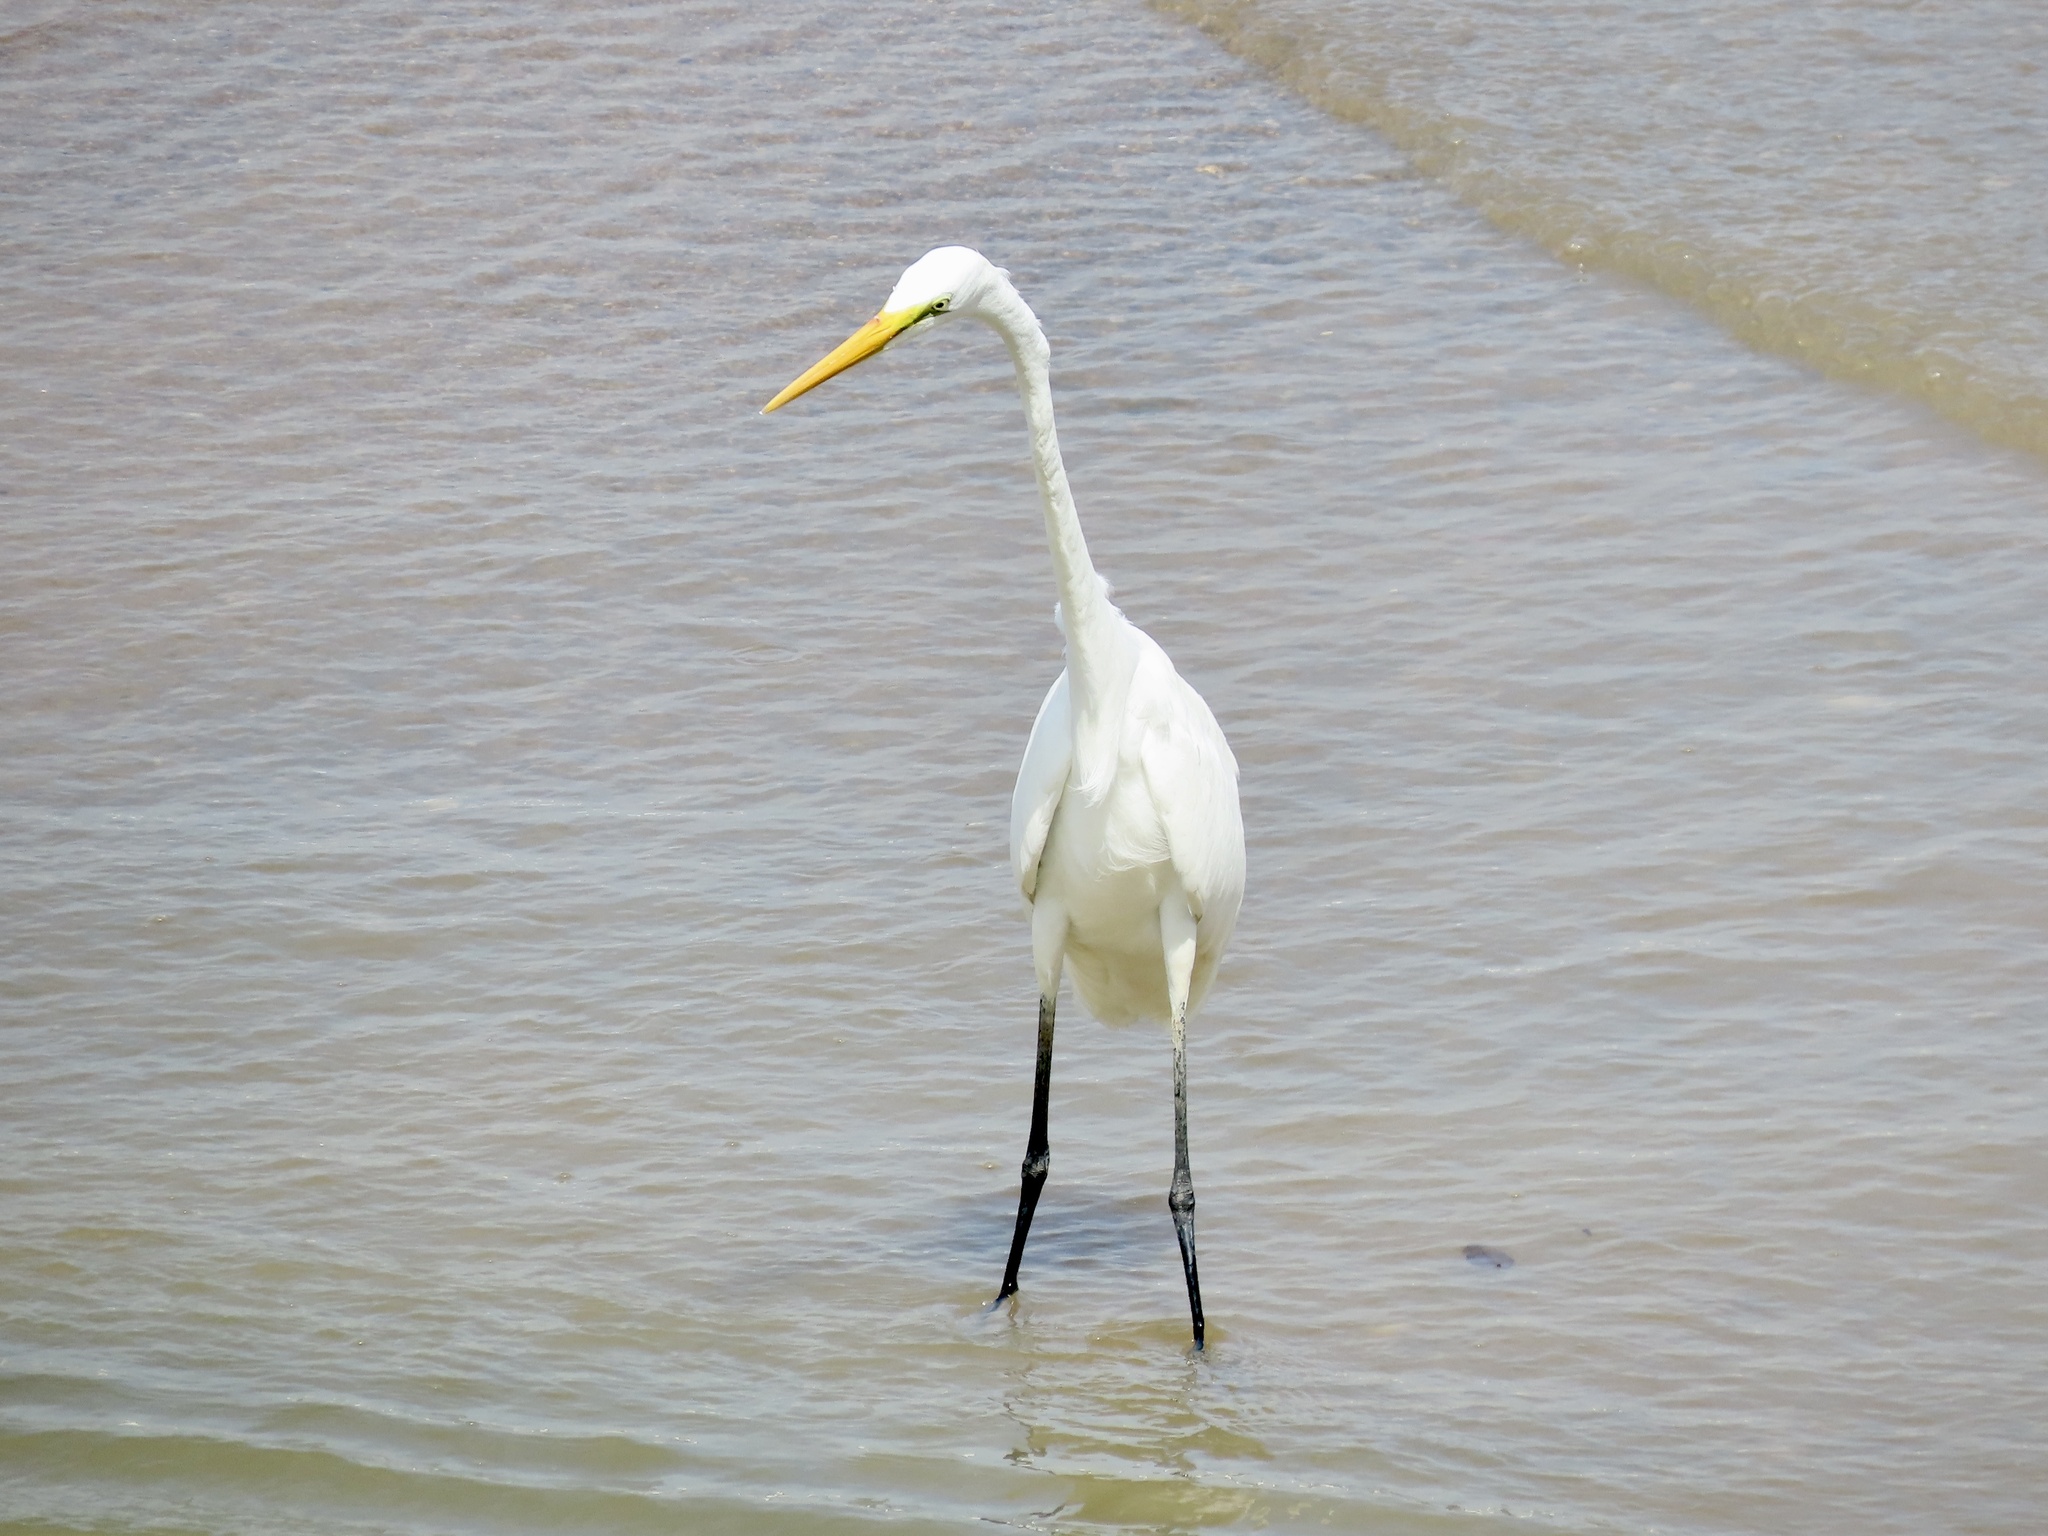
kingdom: Animalia
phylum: Chordata
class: Aves
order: Pelecaniformes
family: Ardeidae
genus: Ardea
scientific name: Ardea alba
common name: Great egret
